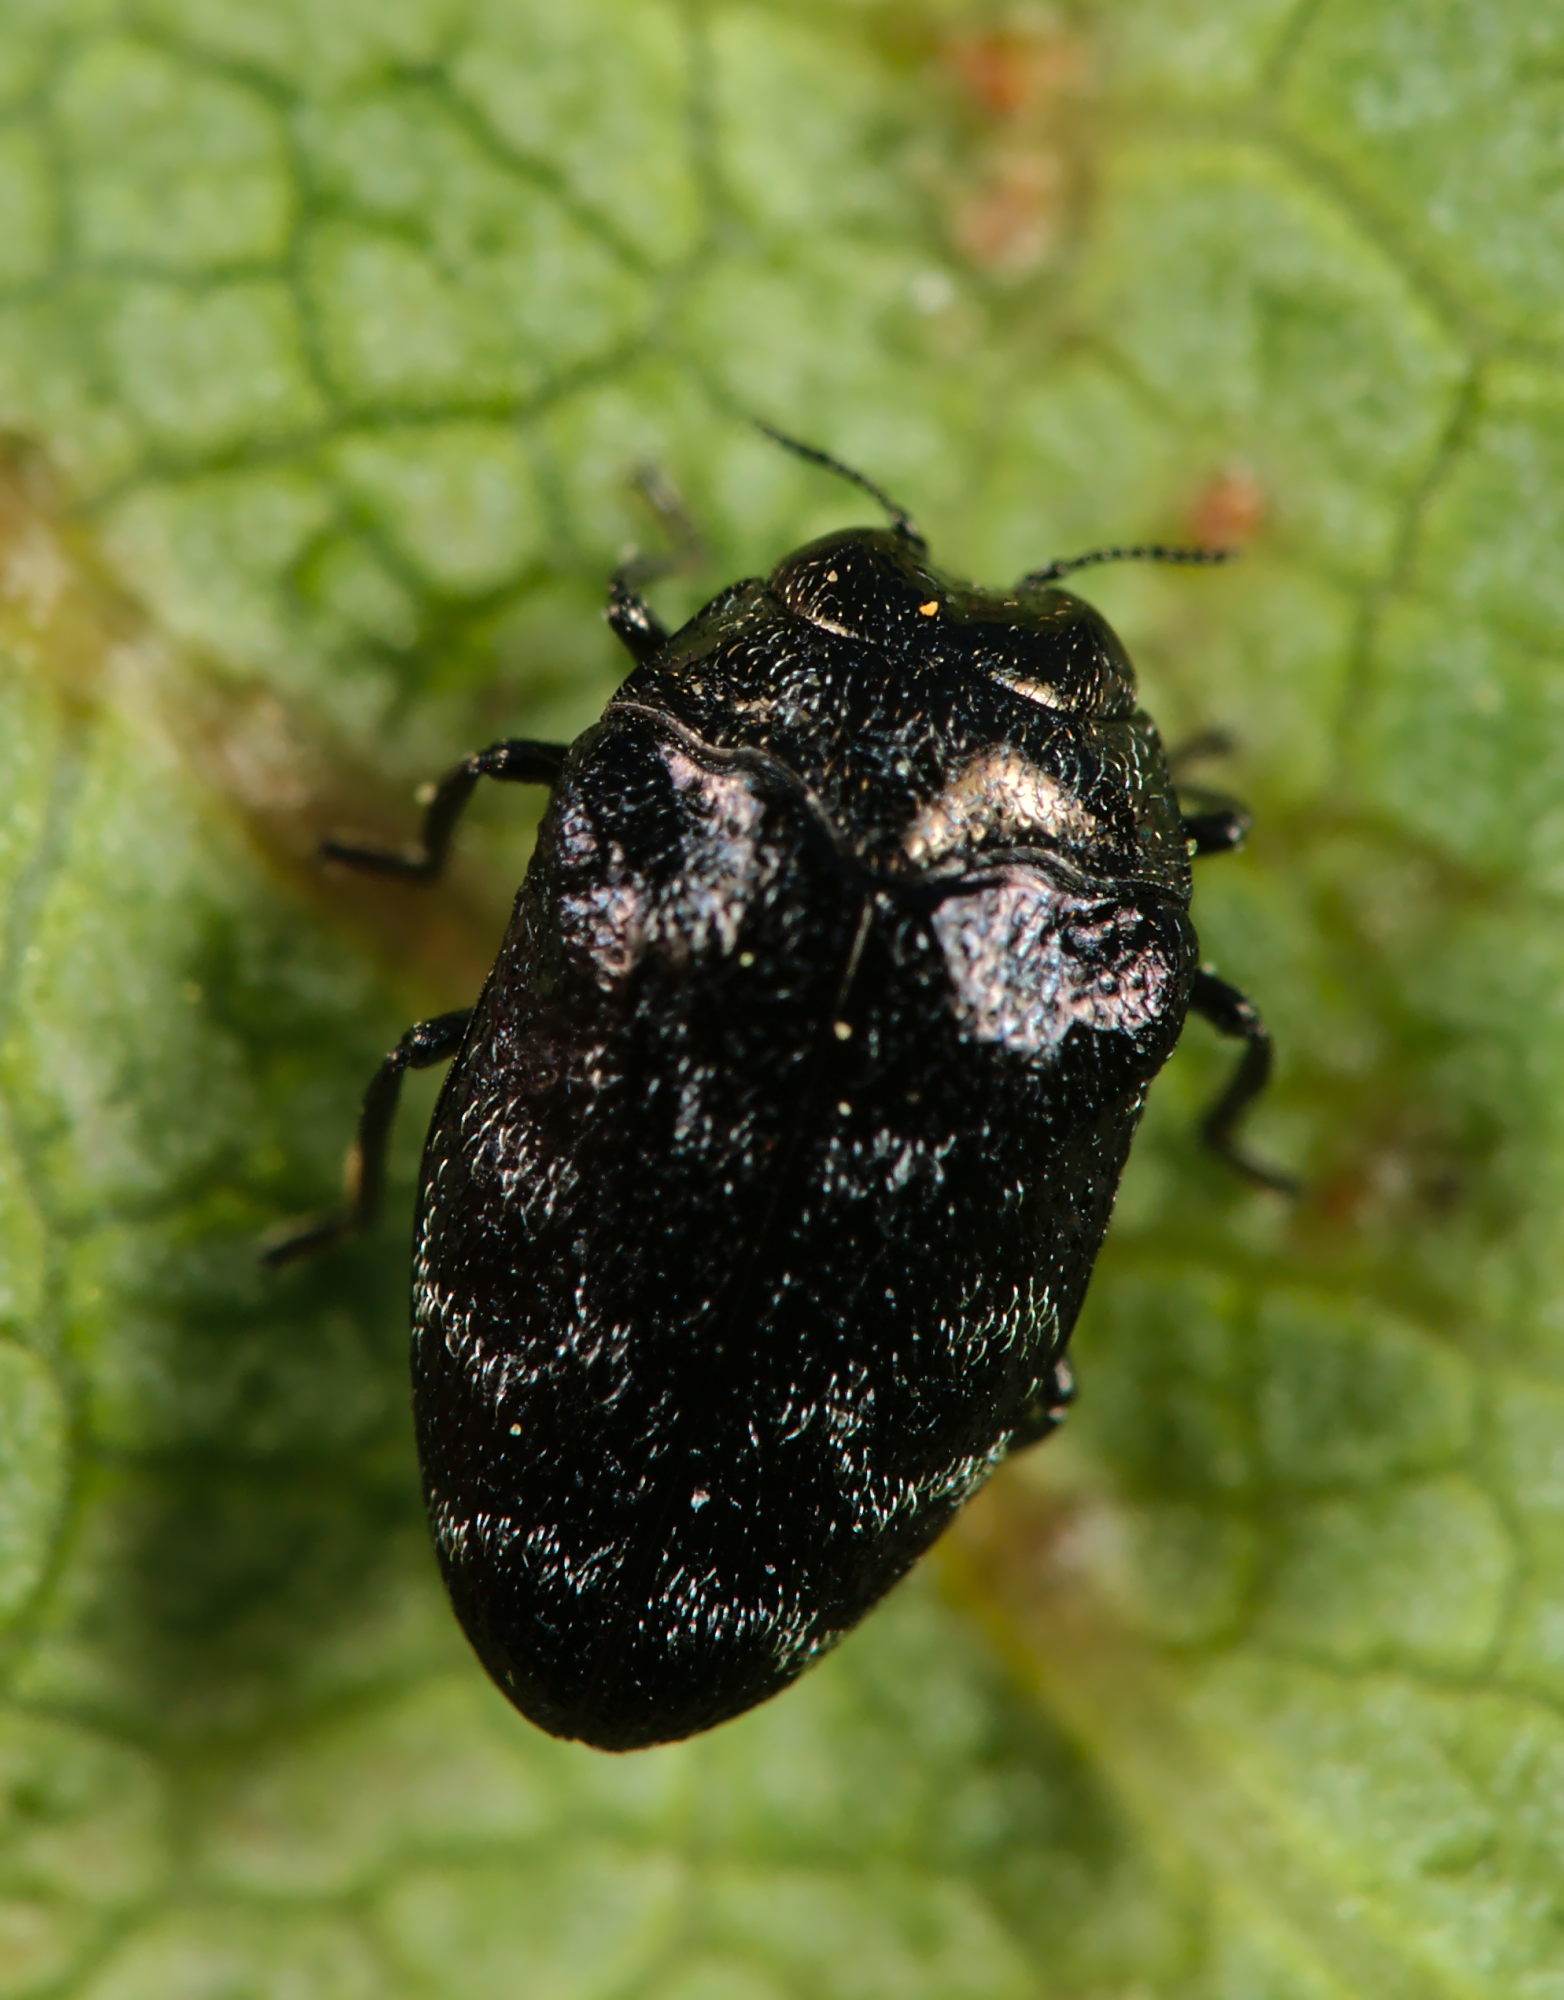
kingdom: Animalia
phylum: Arthropoda
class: Insecta
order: Coleoptera
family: Buprestidae
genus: Trachys
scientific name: Trachys minutus
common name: Metallic wood-boring beetle
